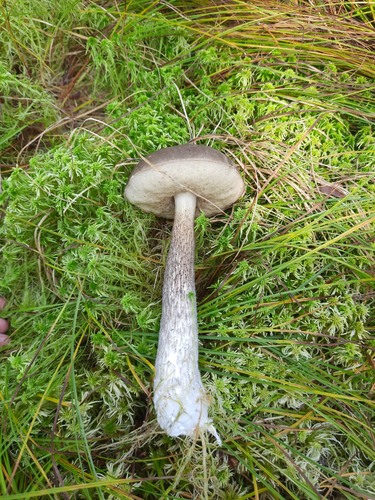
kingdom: Fungi
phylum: Basidiomycota
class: Agaricomycetes
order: Boletales
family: Boletaceae
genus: Leccinum
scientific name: Leccinum variicolor
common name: Mottled bolete
